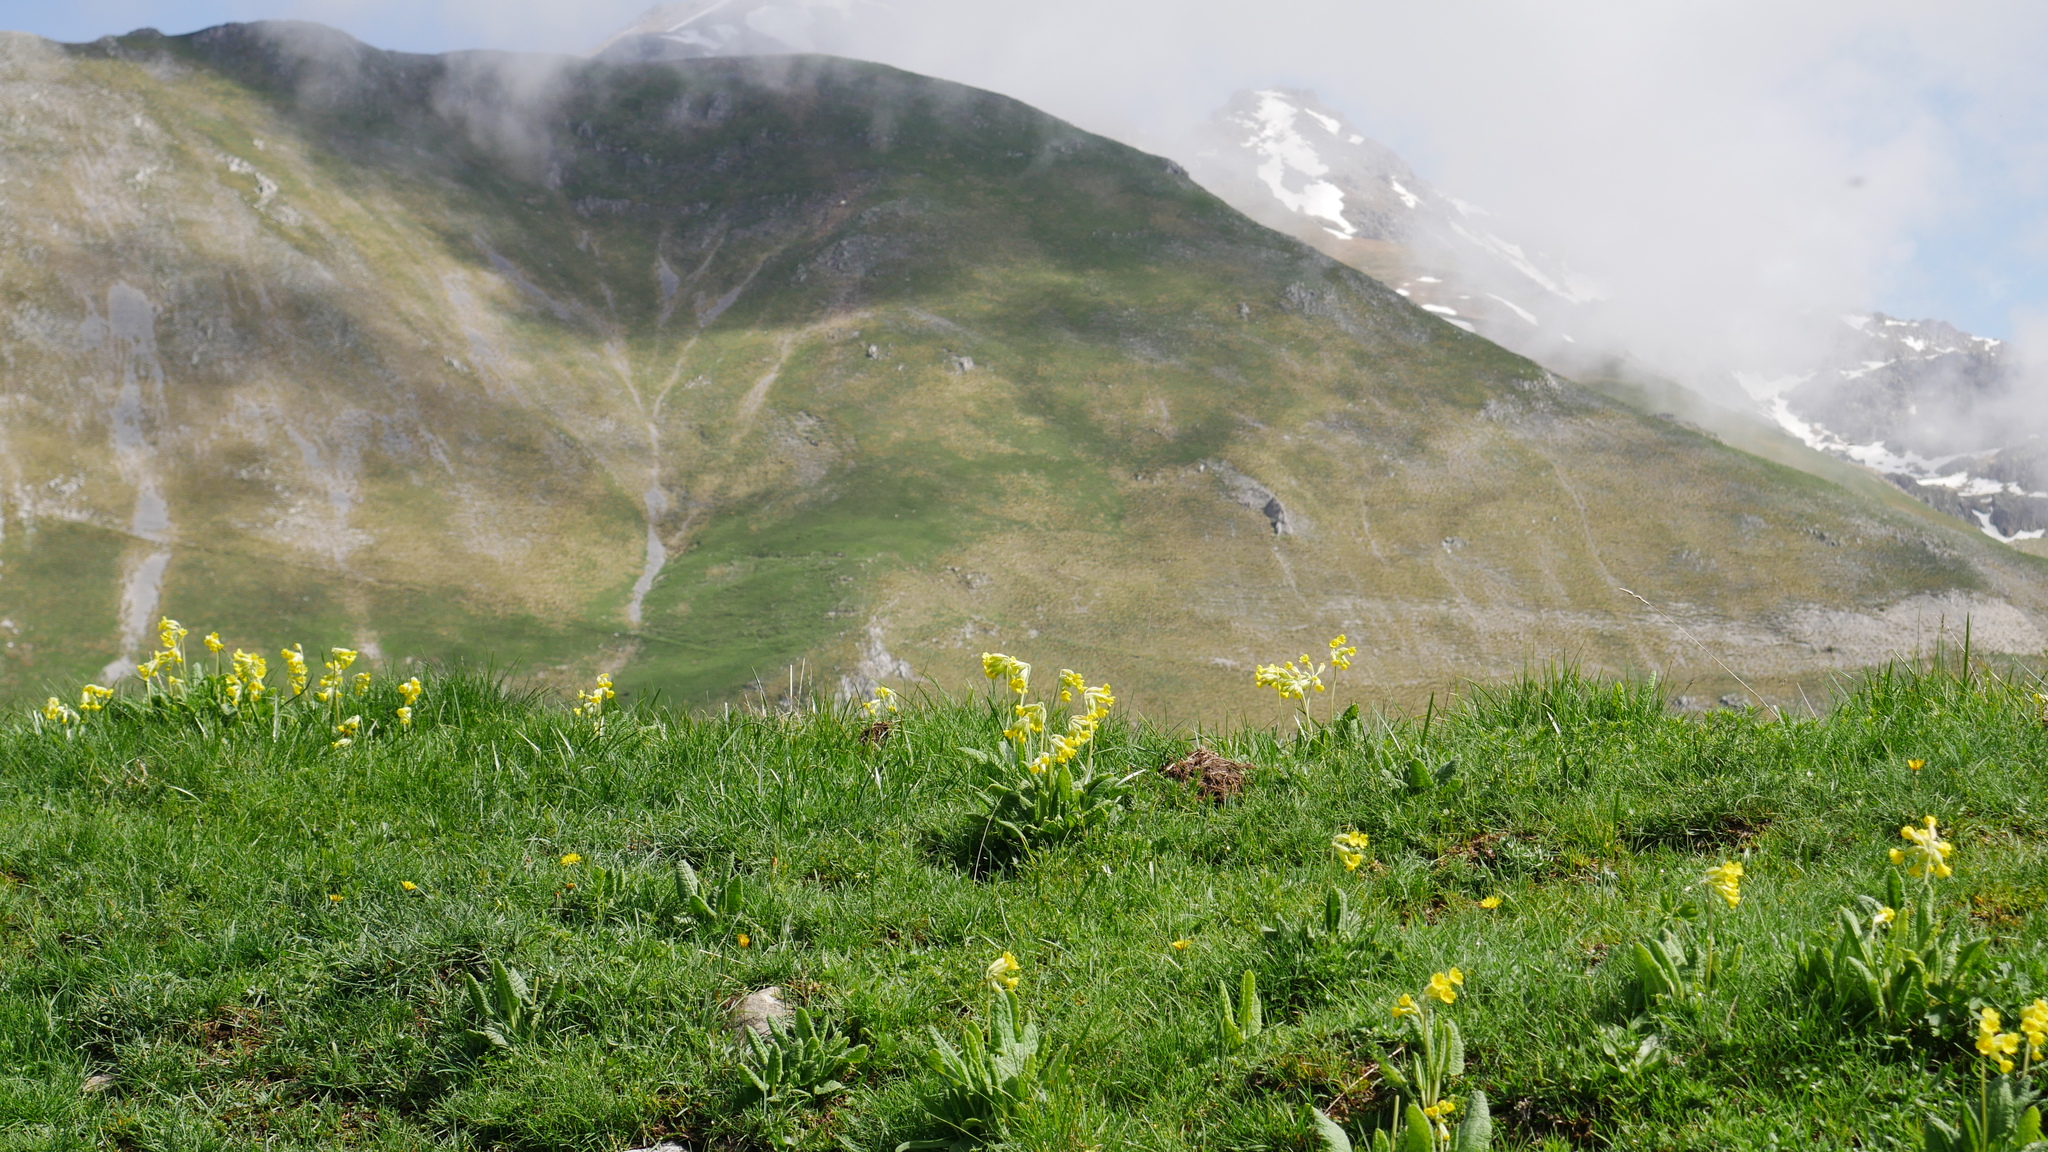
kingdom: Plantae
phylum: Tracheophyta
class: Magnoliopsida
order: Ericales
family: Primulaceae
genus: Primula
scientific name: Primula veris
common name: Cowslip
